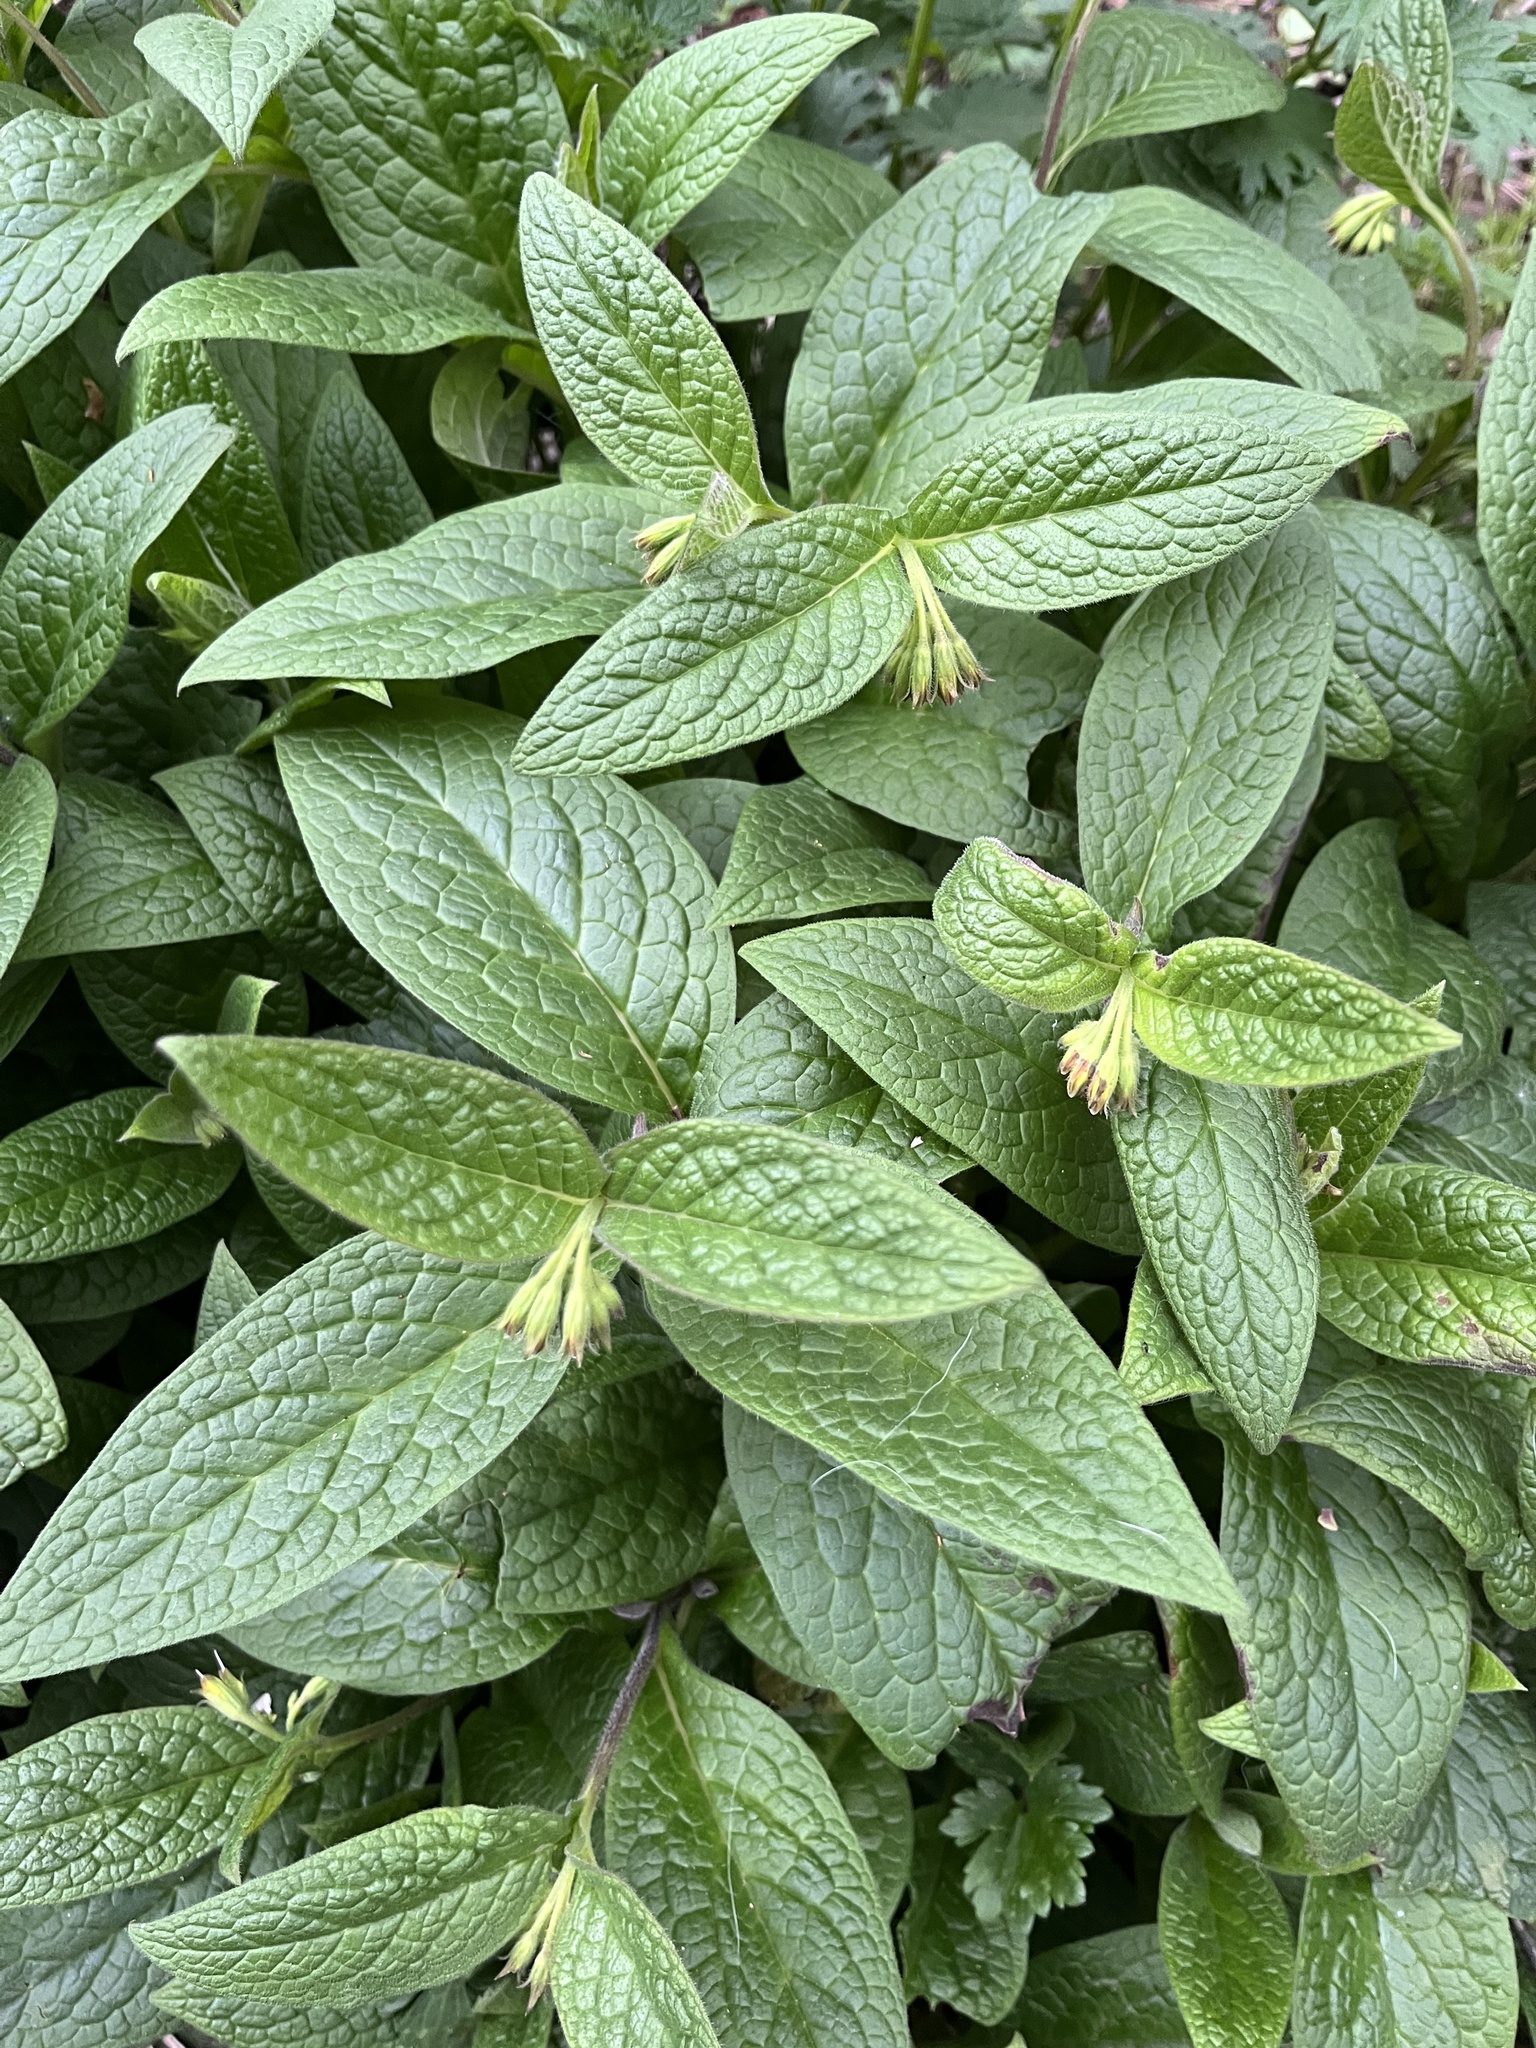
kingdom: Plantae
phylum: Tracheophyta
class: Magnoliopsida
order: Boraginales
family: Boraginaceae
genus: Symphytum
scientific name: Symphytum tuberosum
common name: Tuberous comfrey
